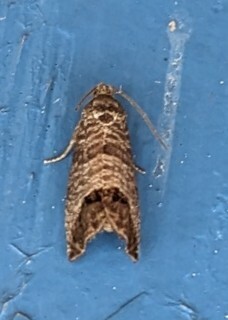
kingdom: Animalia
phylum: Arthropoda
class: Insecta
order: Lepidoptera
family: Tortricidae
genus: Cydia
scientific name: Cydia pomonella
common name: Codling moth
